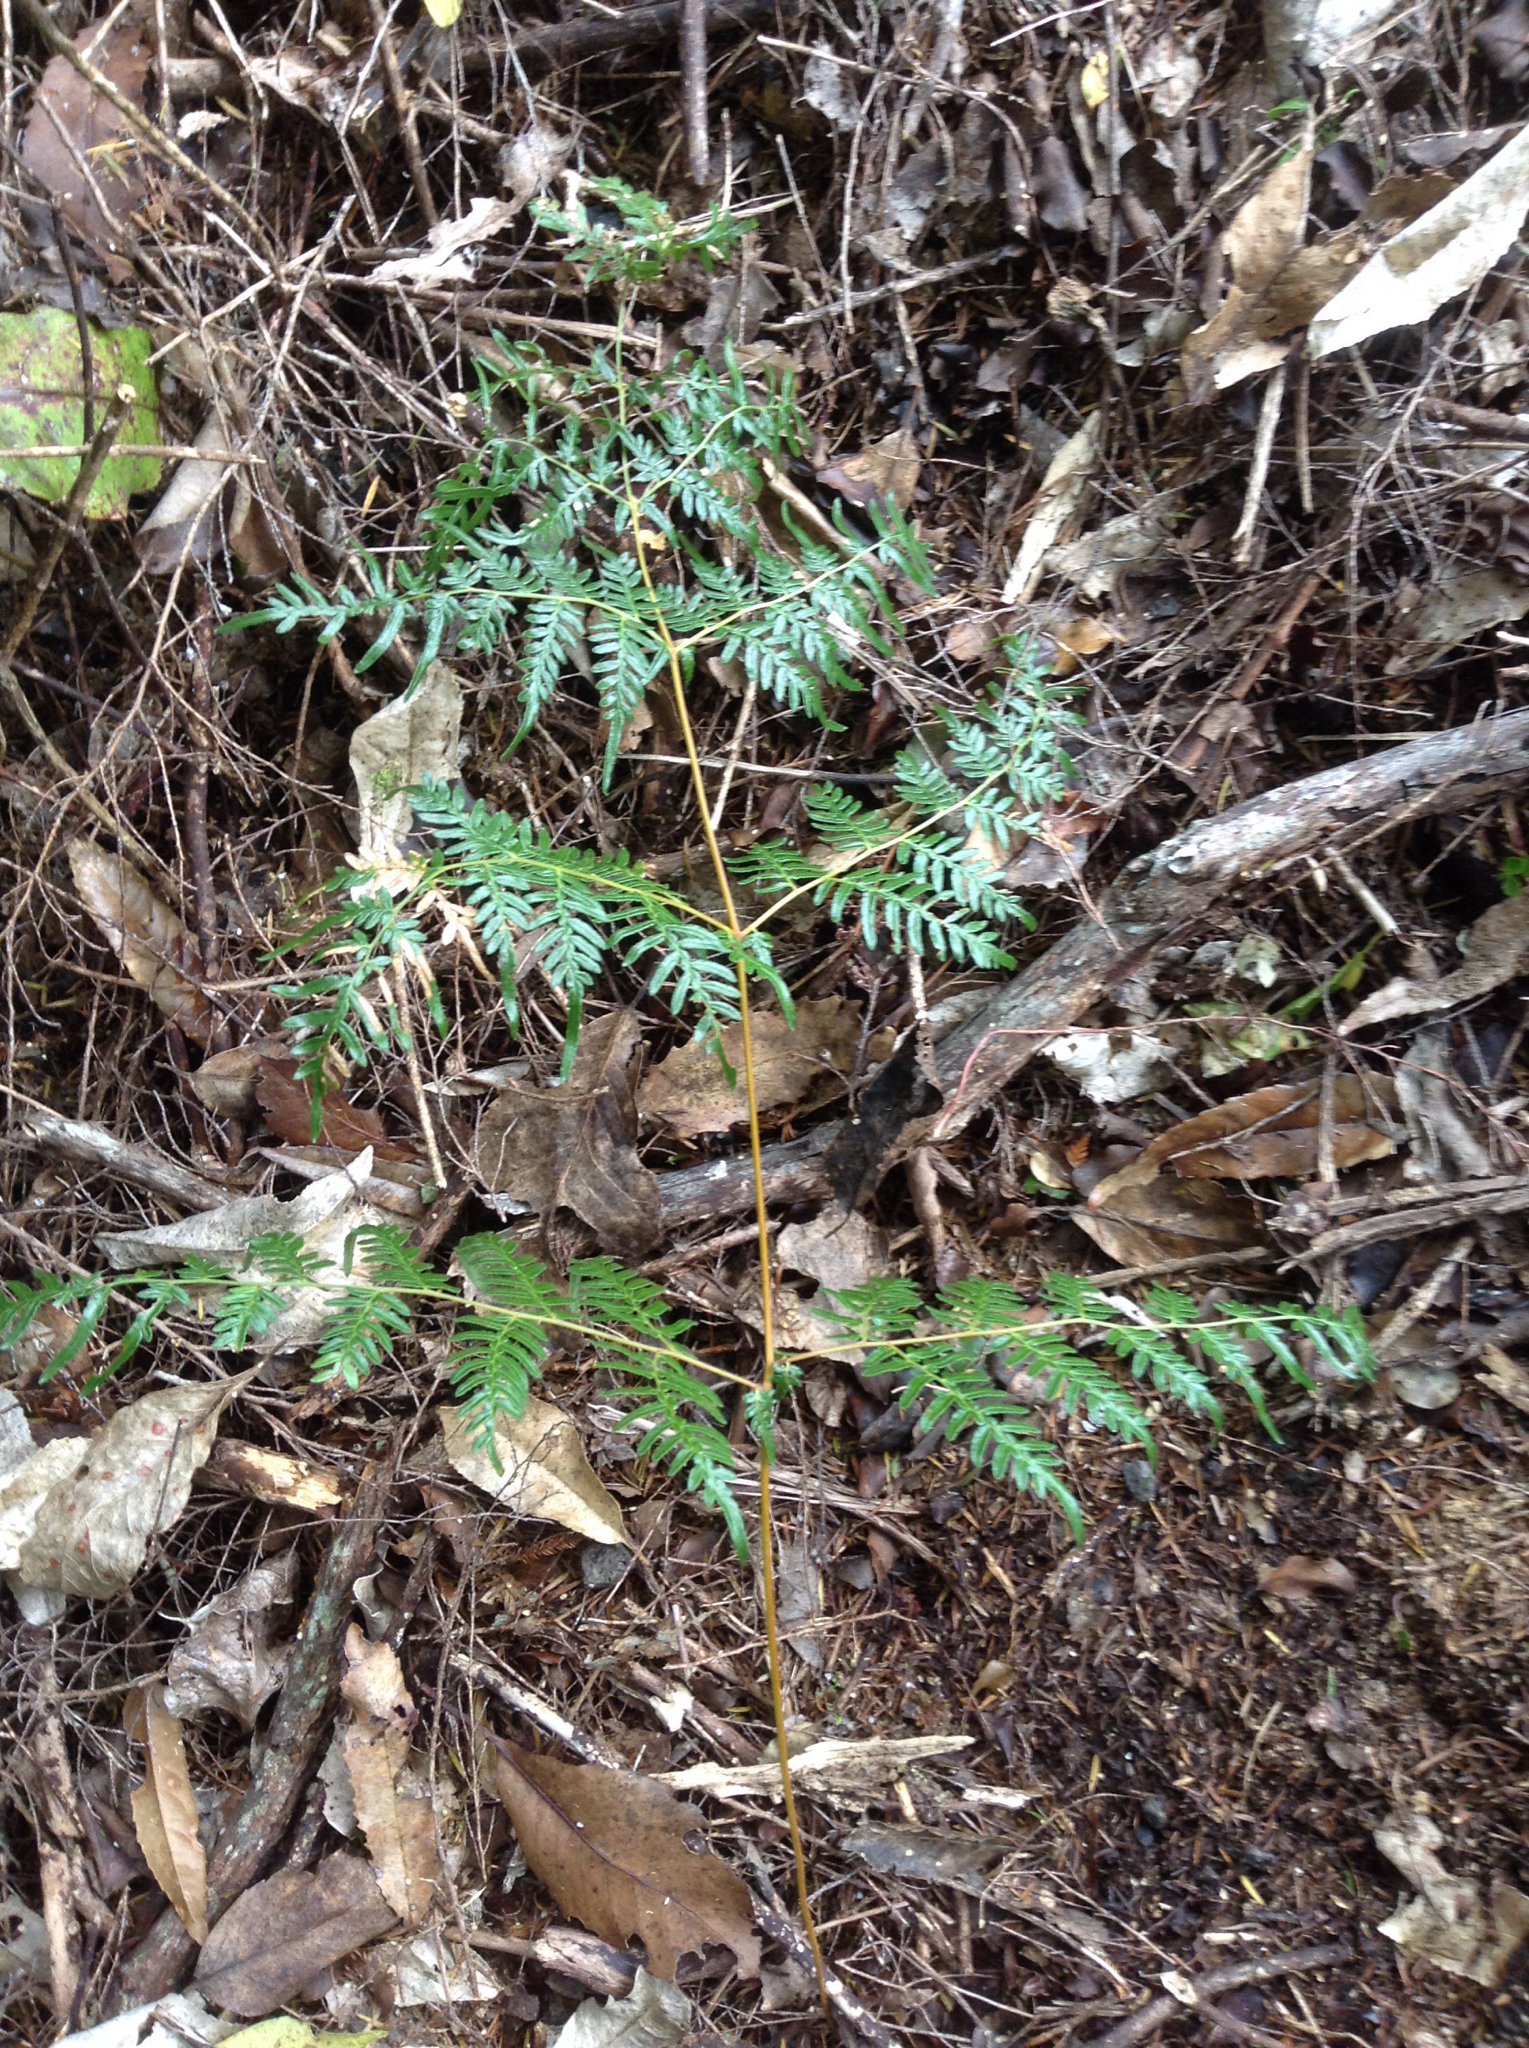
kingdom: Plantae
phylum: Tracheophyta
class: Polypodiopsida
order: Polypodiales
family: Dennstaedtiaceae
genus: Pteridium
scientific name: Pteridium esculentum
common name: Bracken fern
